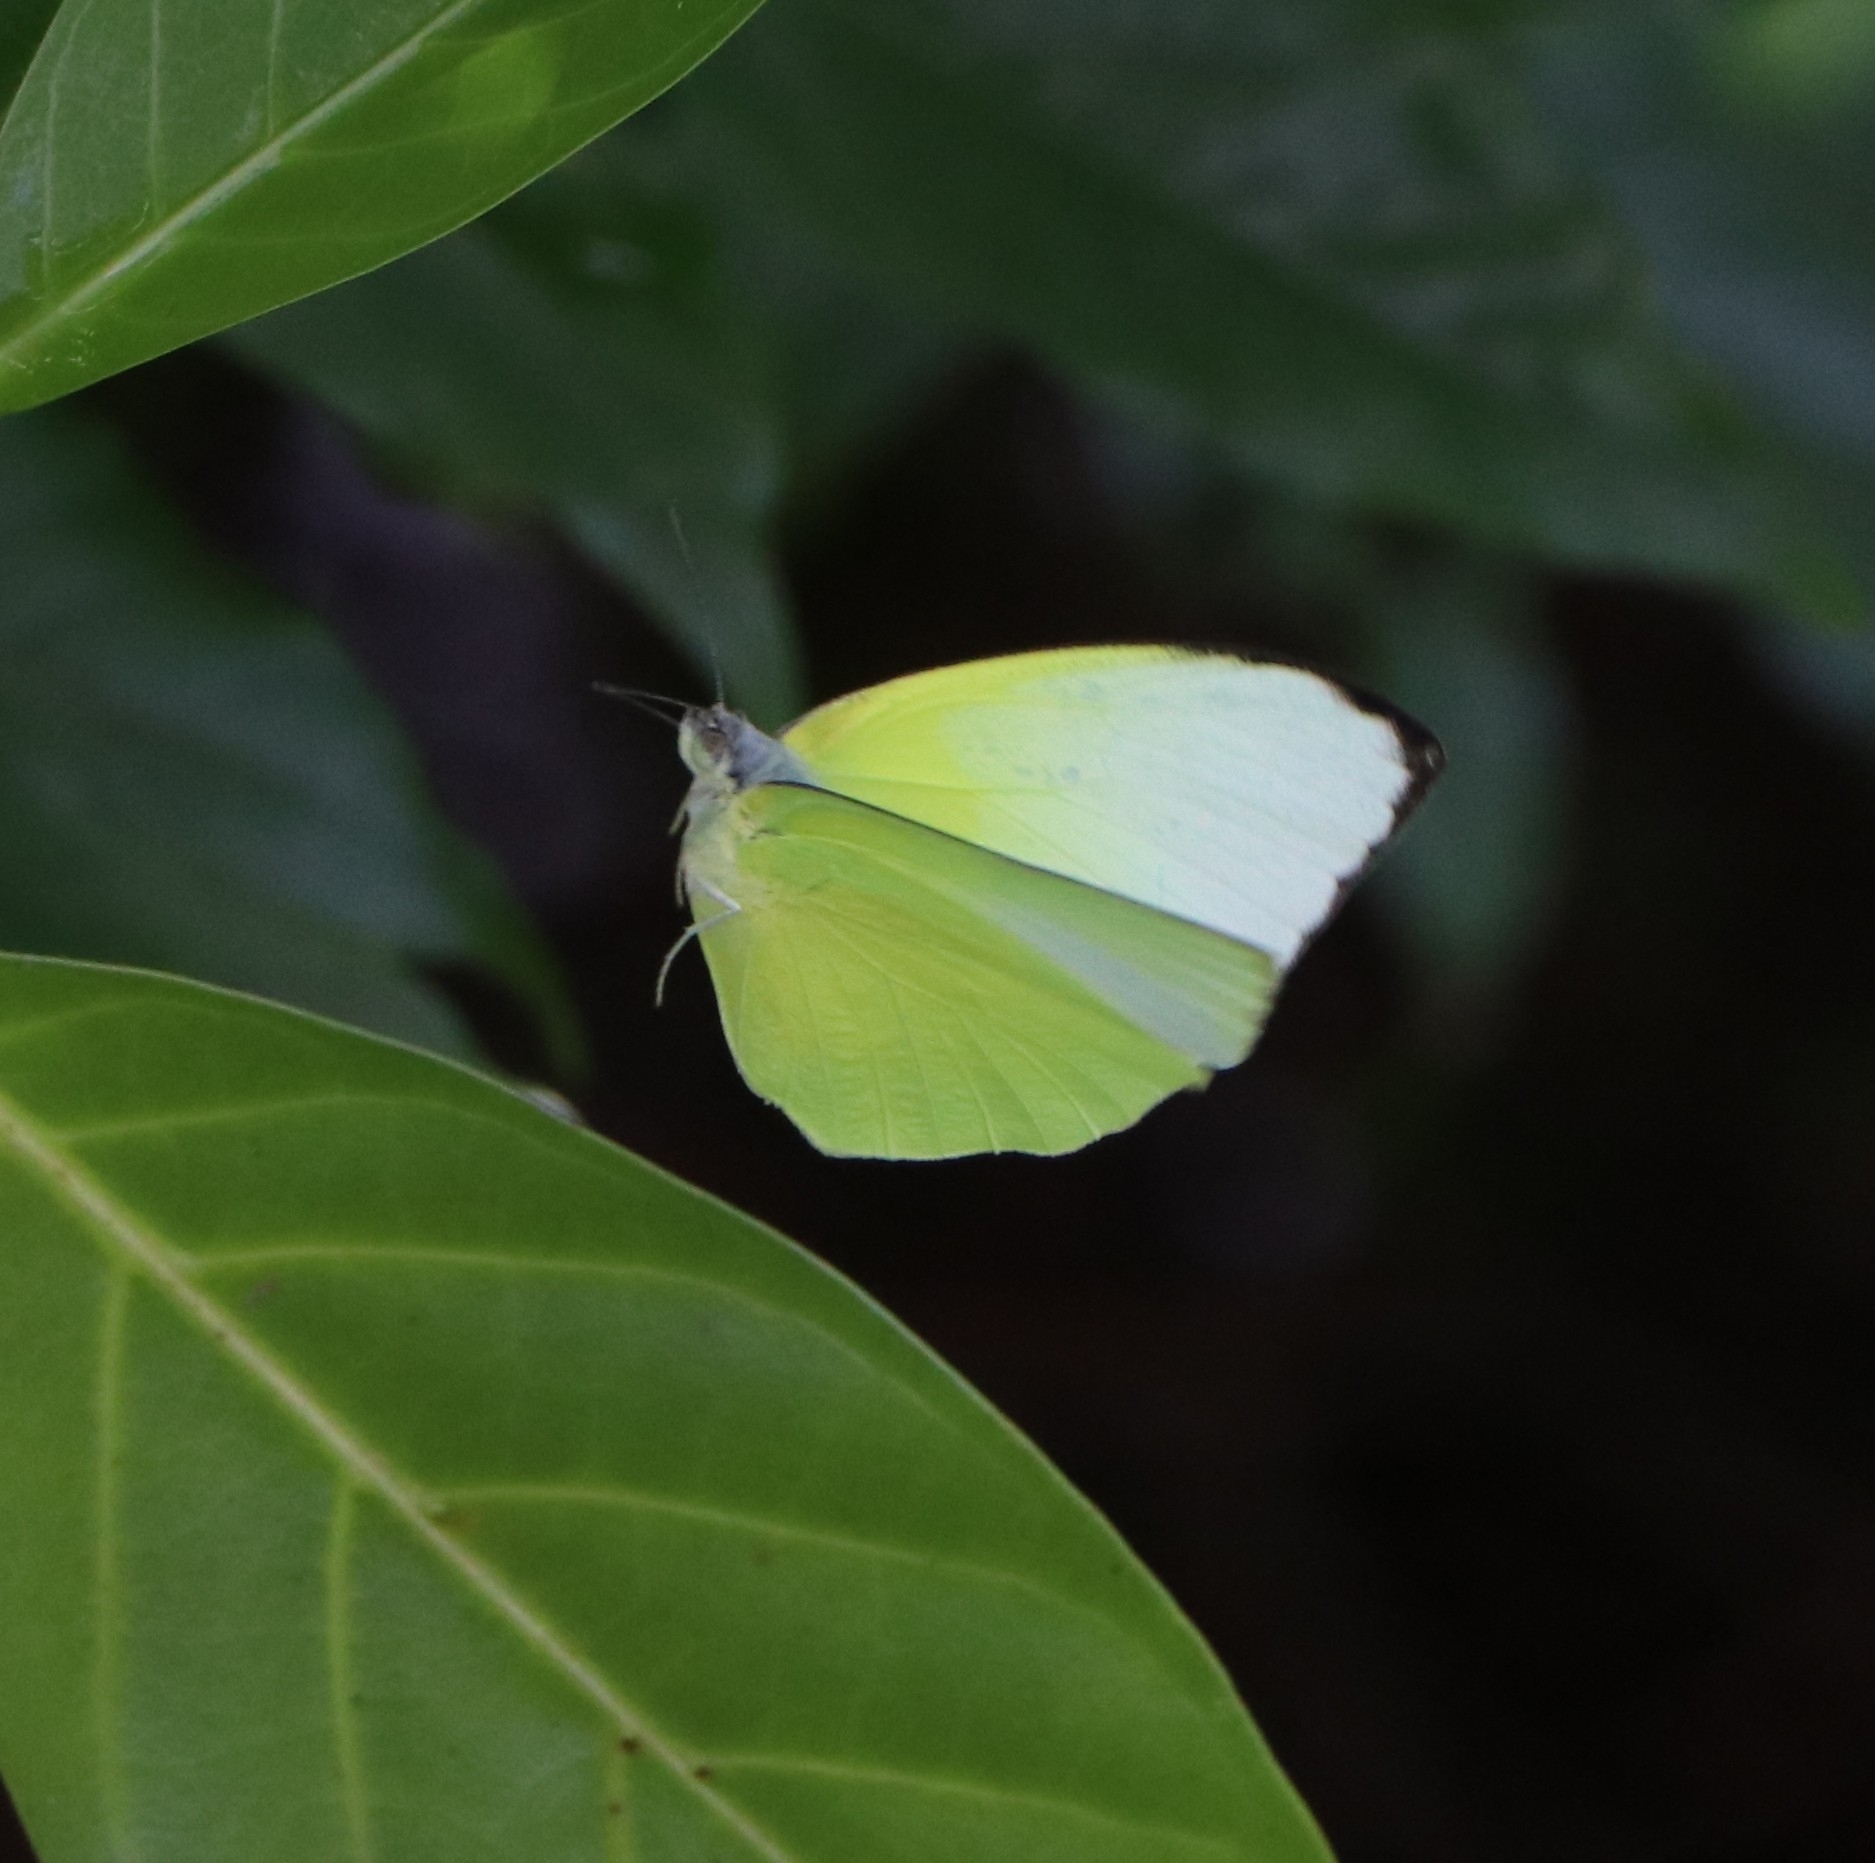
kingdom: Animalia
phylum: Arthropoda
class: Insecta
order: Lepidoptera
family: Pieridae
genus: Catopsilia
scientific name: Catopsilia pomona
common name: Common emigrant
